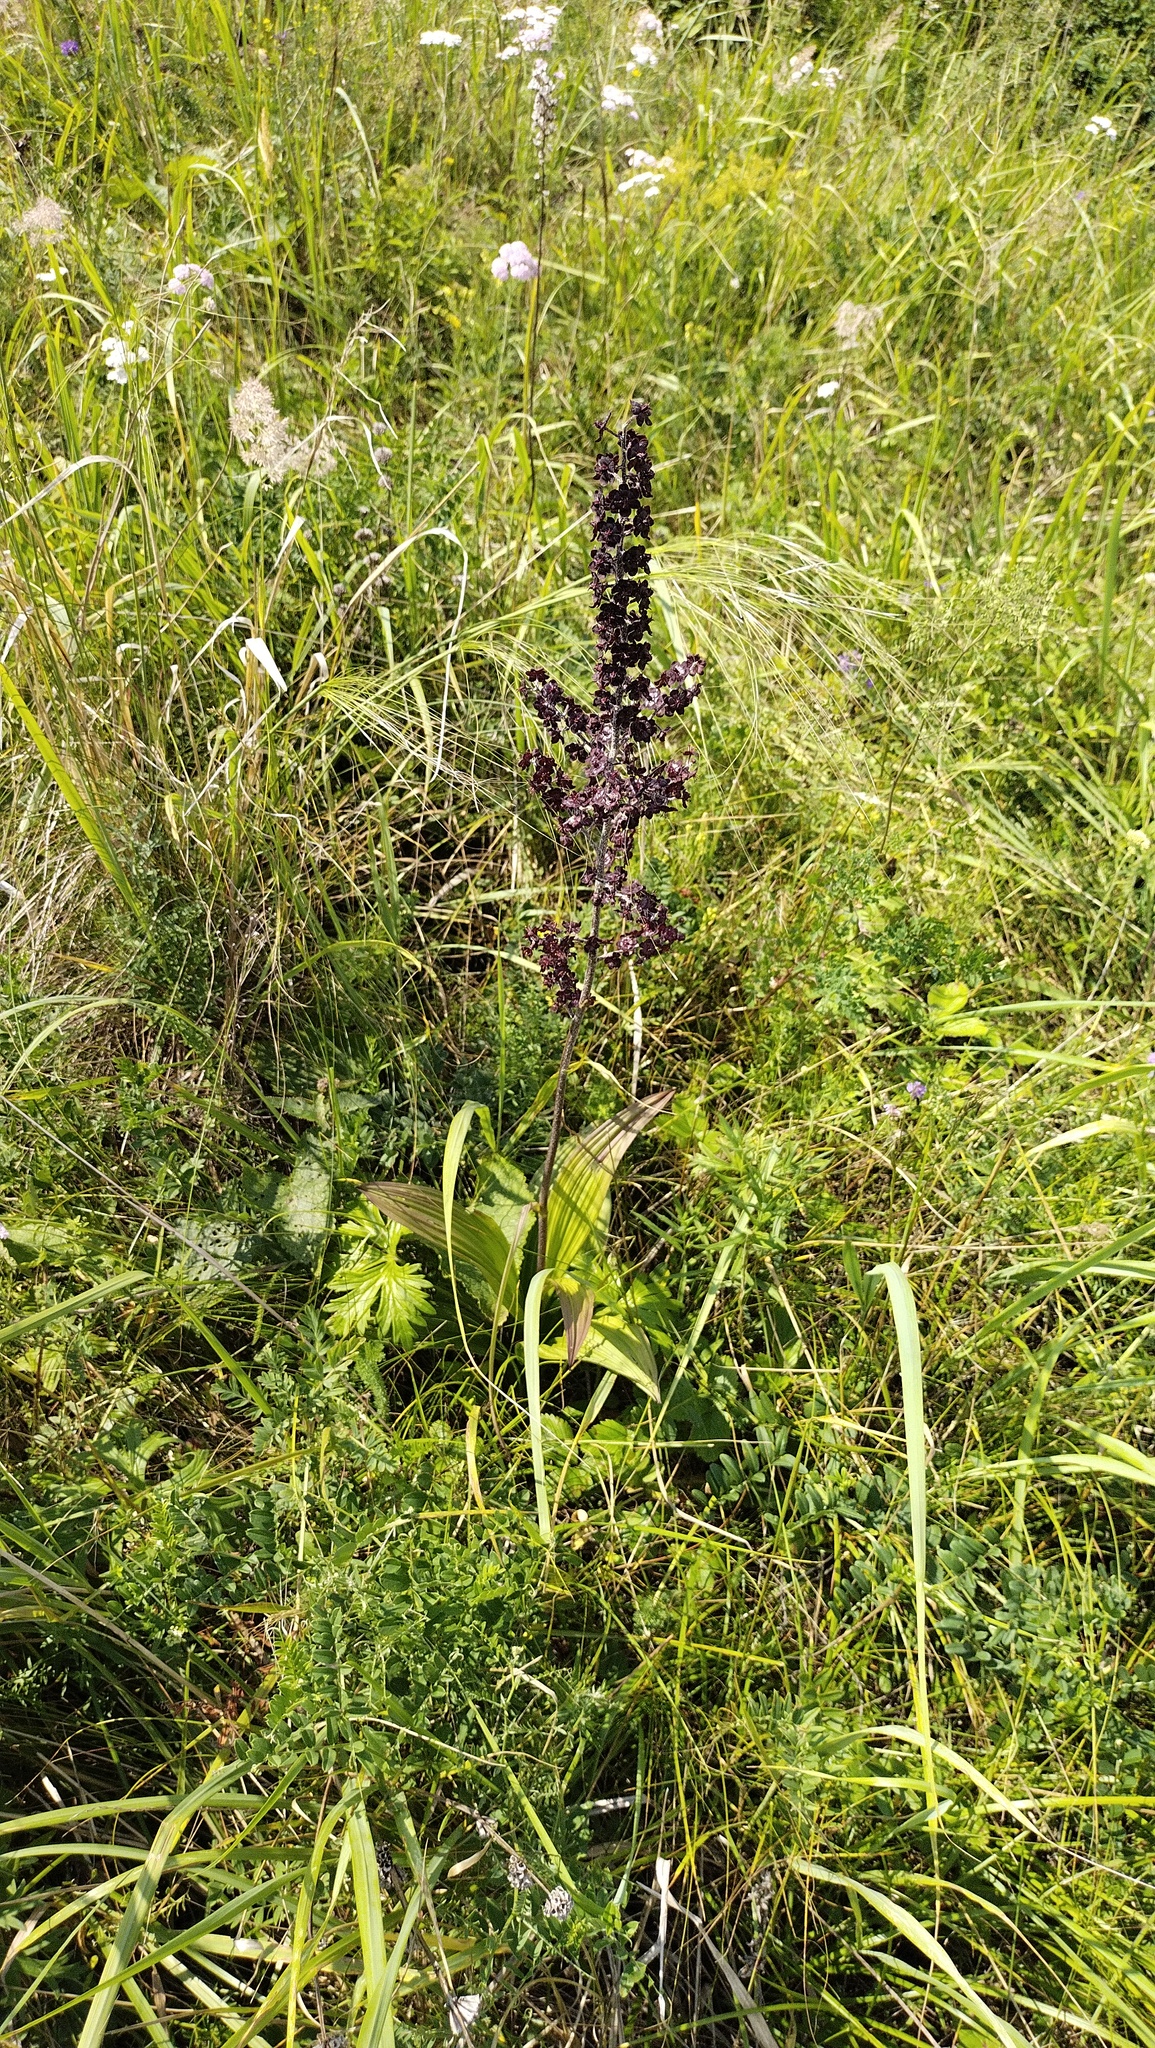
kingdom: Plantae
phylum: Tracheophyta
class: Liliopsida
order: Liliales
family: Melanthiaceae
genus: Veratrum
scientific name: Veratrum nigrum
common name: Black veratrum
